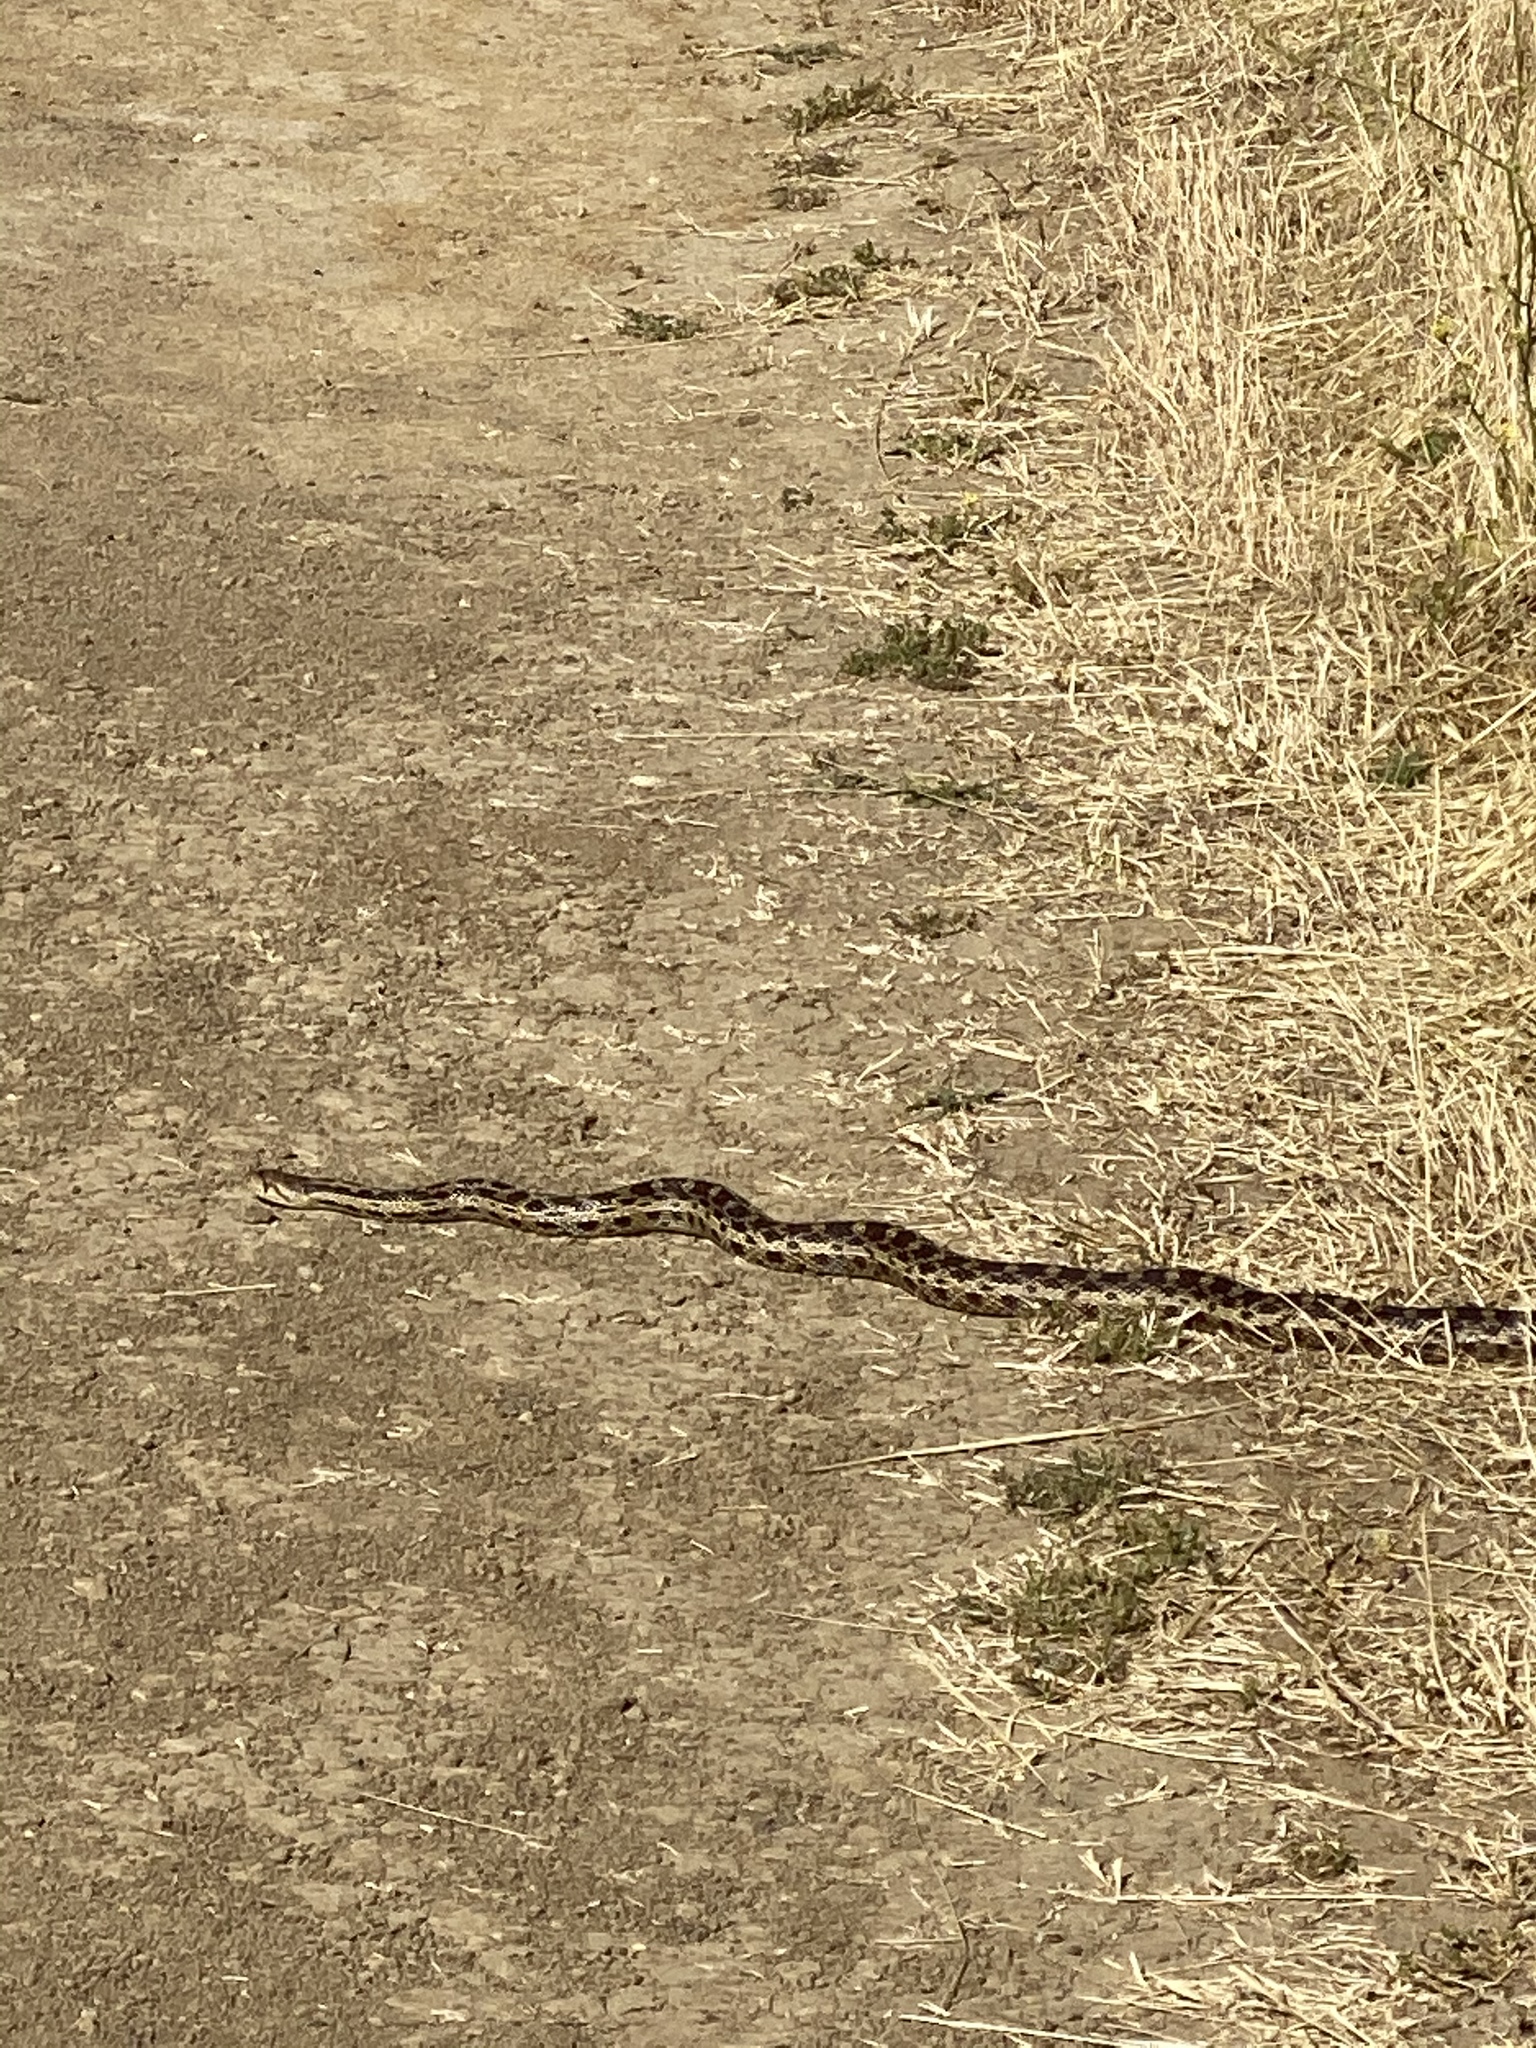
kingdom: Animalia
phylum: Chordata
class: Squamata
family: Colubridae
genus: Pituophis
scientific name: Pituophis catenifer
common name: Gopher snake
